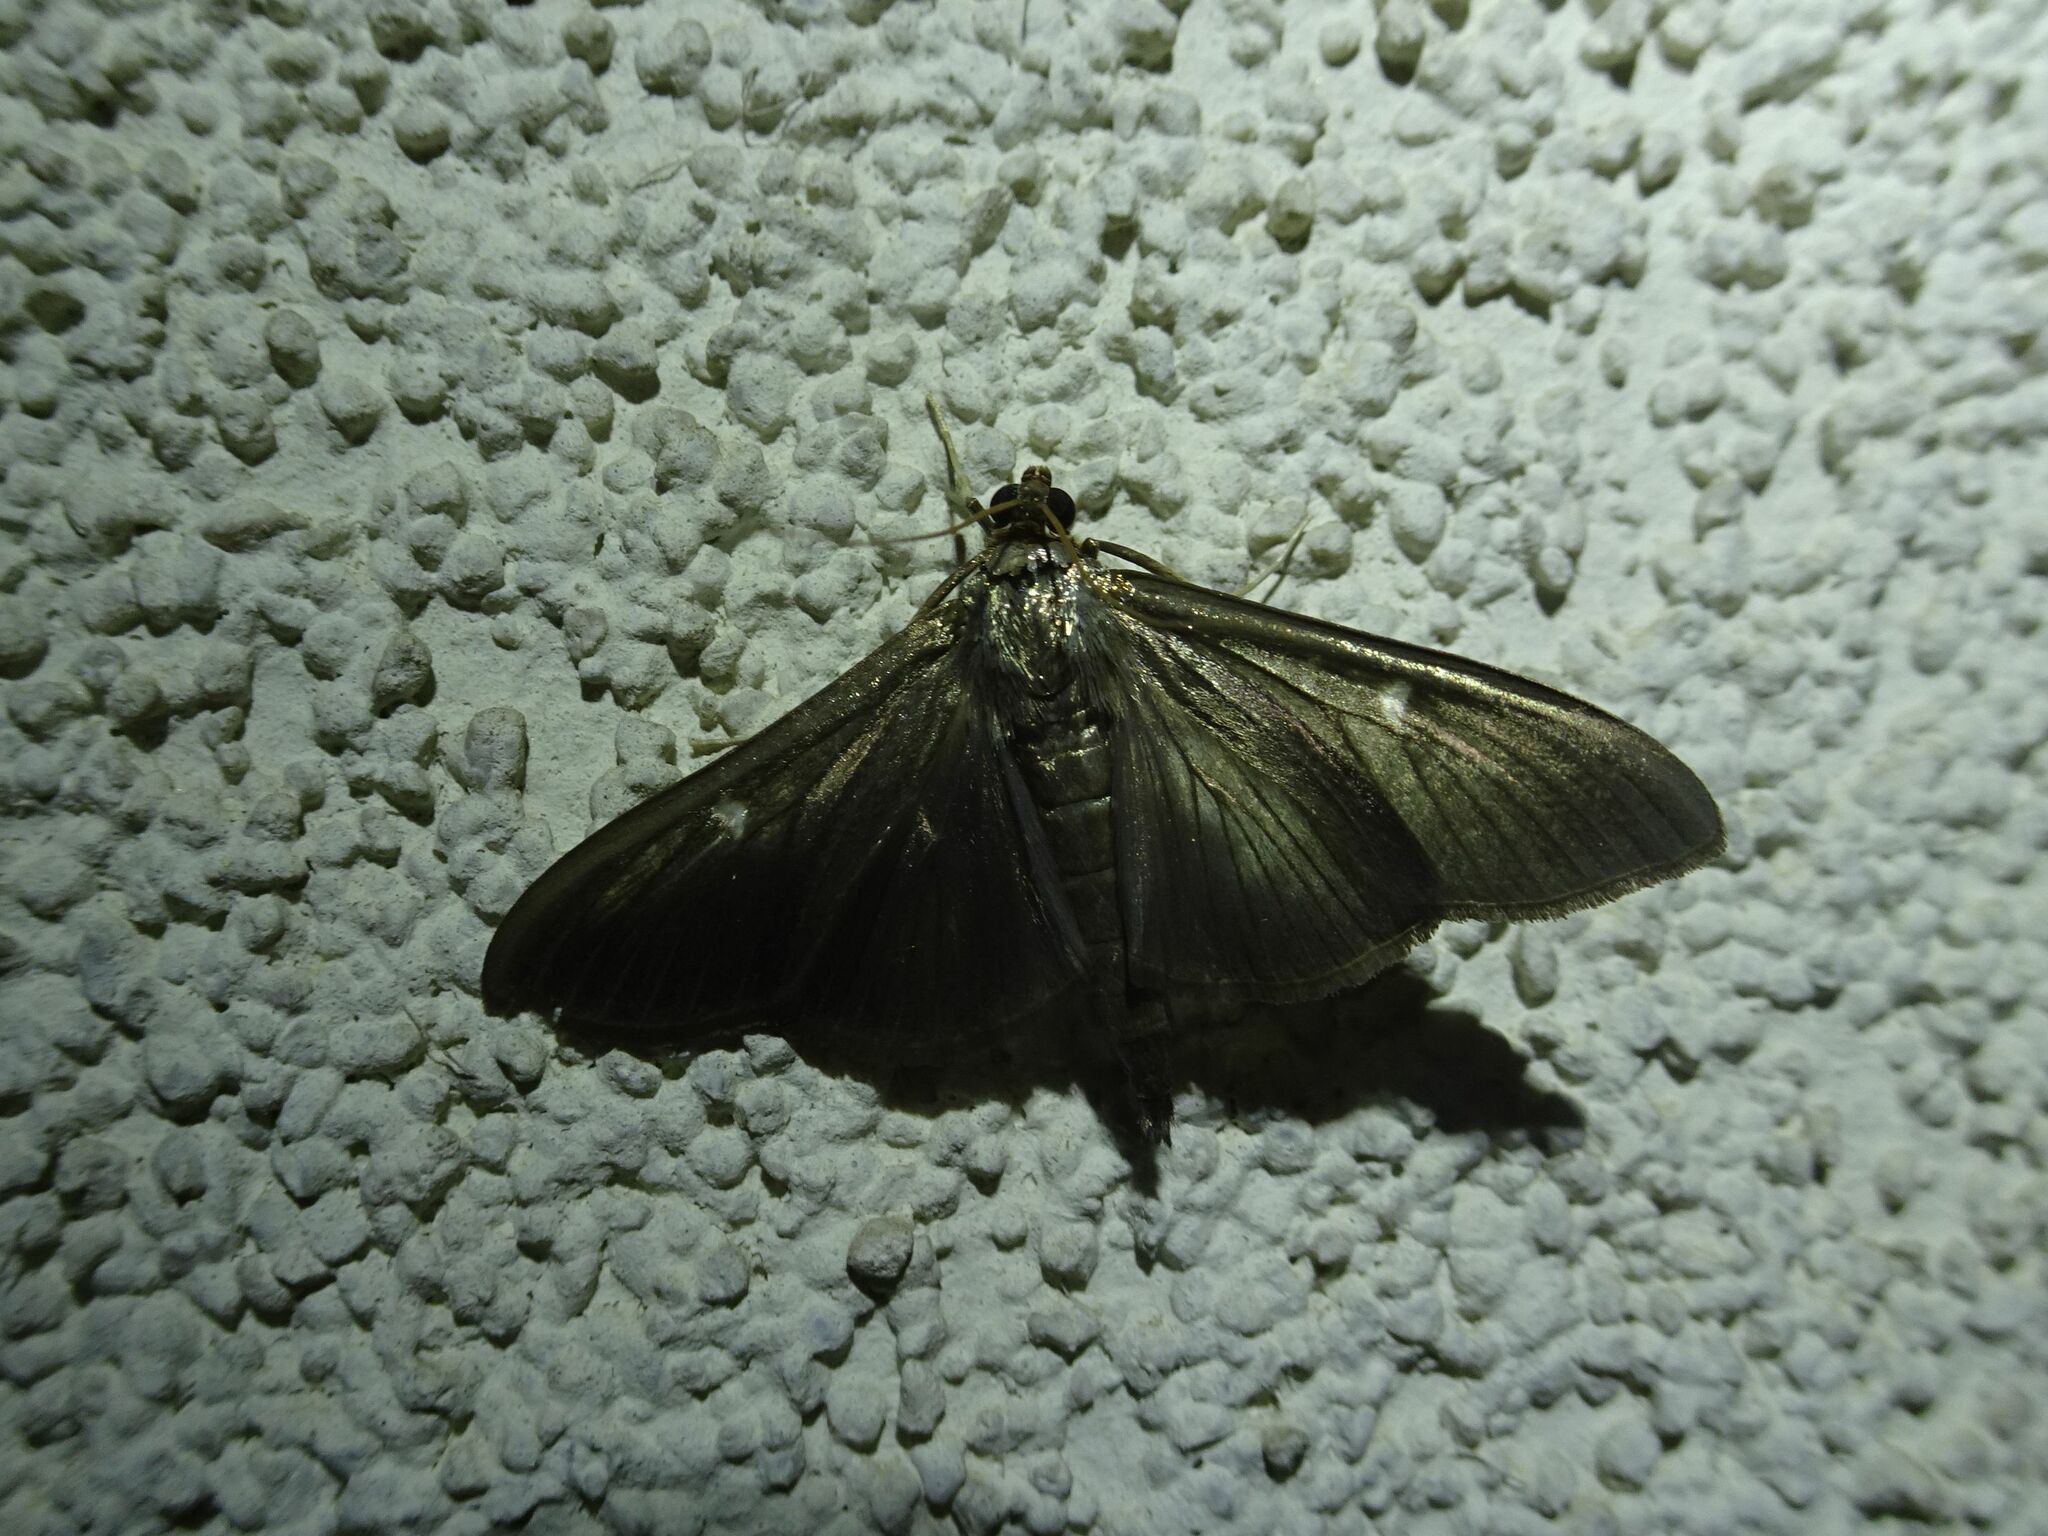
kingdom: Animalia
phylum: Arthropoda
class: Insecta
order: Lepidoptera
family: Crambidae
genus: Cydalima
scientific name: Cydalima perspectalis
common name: Box tree moth
